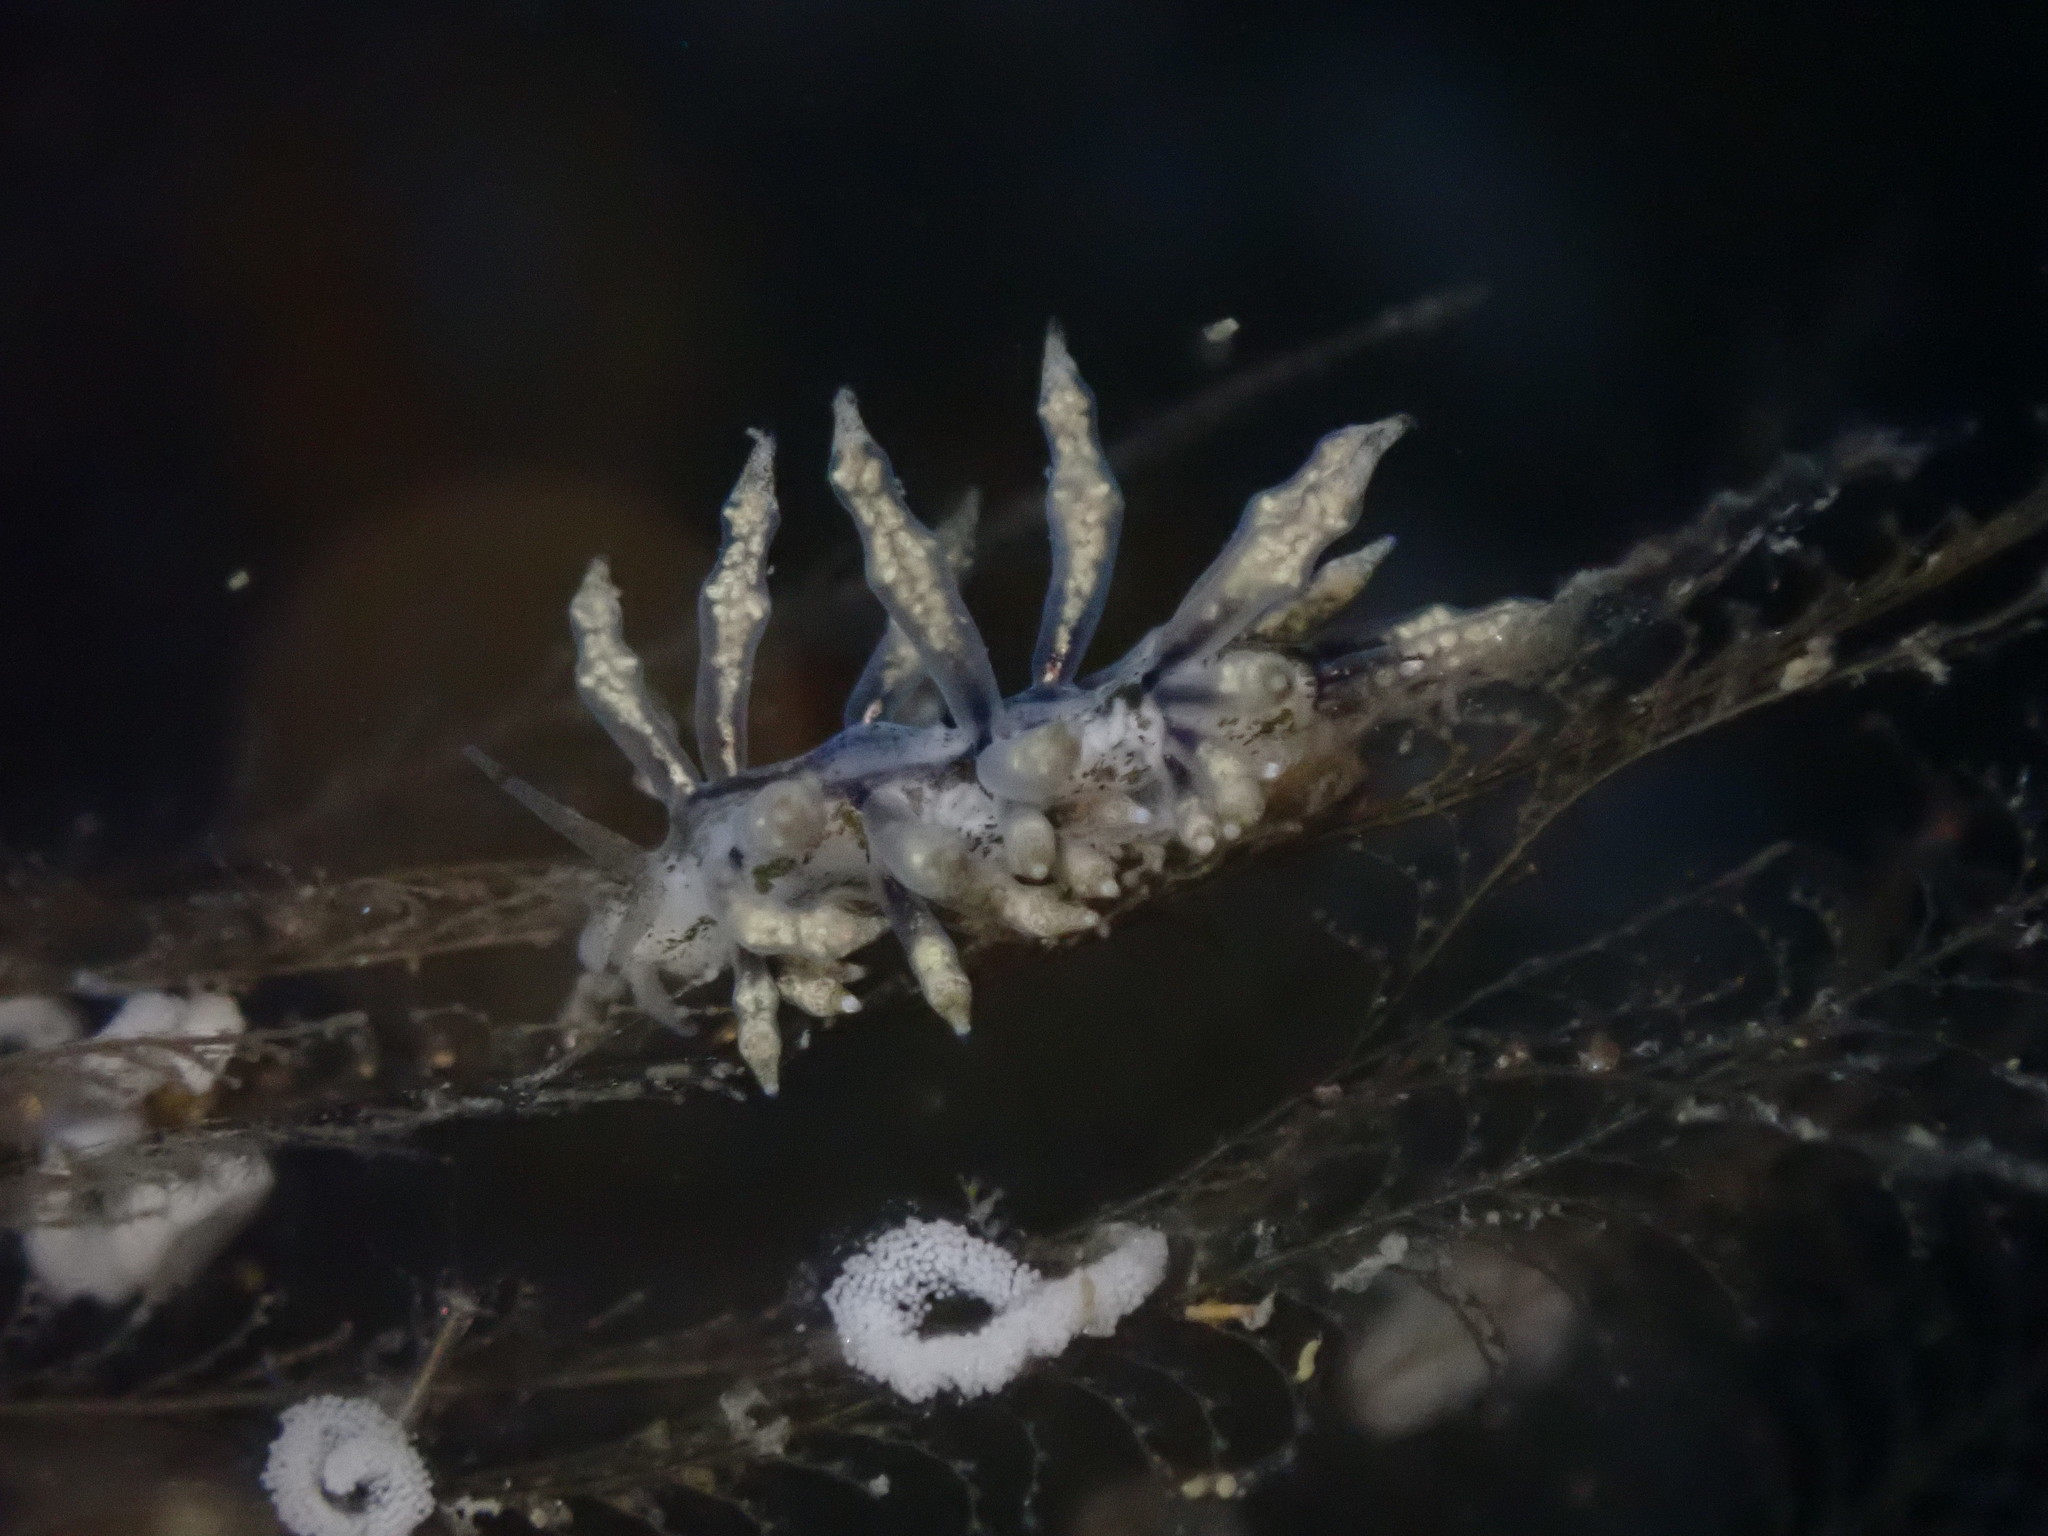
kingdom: Animalia
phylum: Mollusca
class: Gastropoda
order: Nudibranchia
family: Eubranchidae
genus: Eubranchus
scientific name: Eubranchus rustyus
